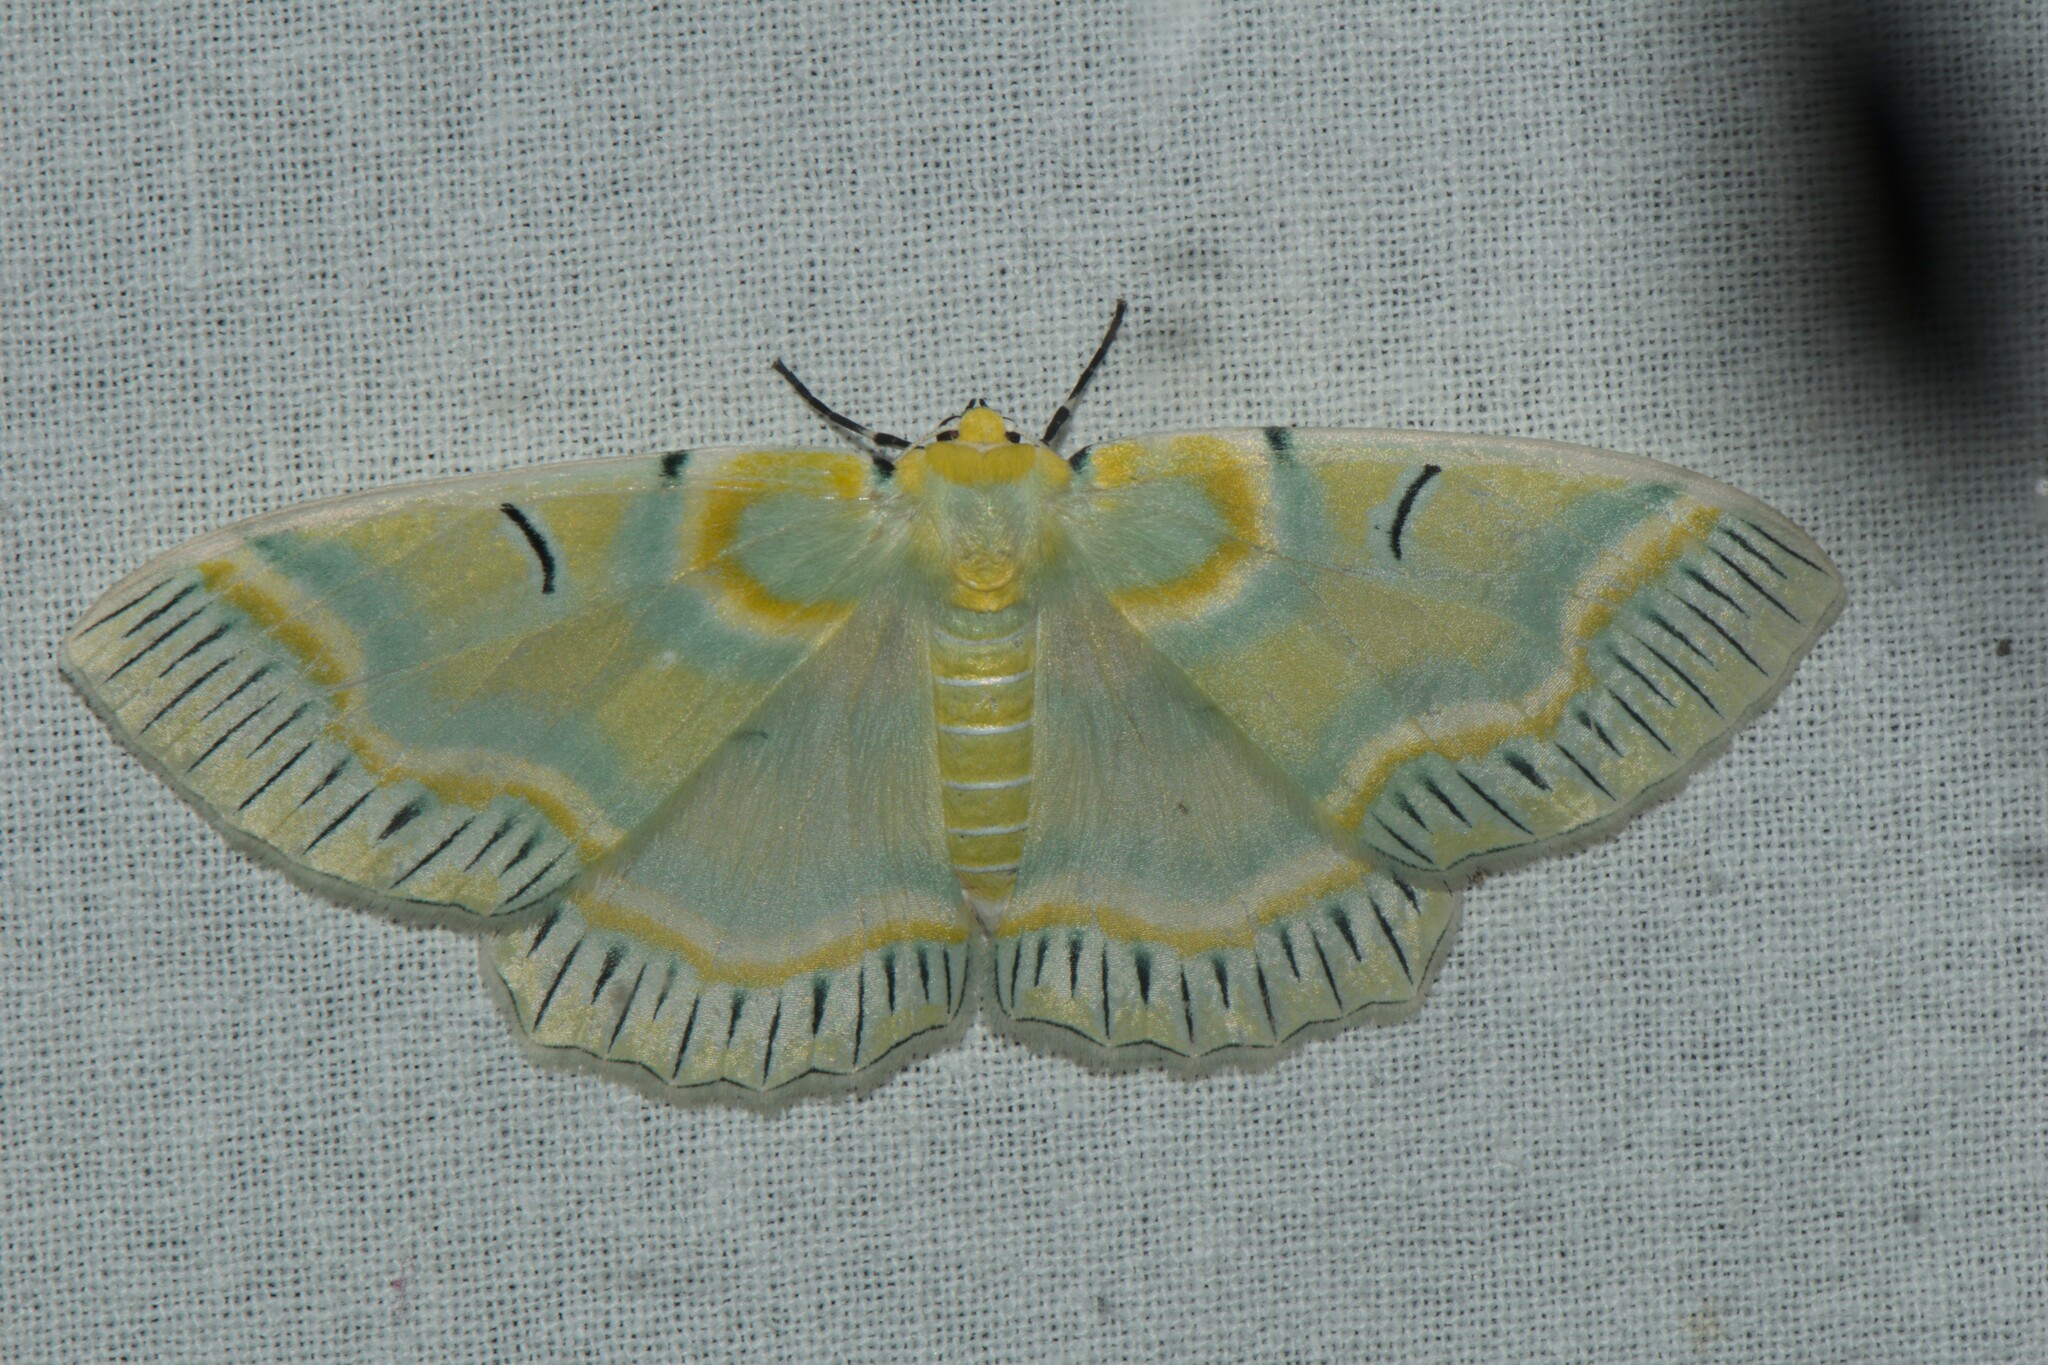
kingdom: Animalia
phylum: Arthropoda
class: Insecta
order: Lepidoptera
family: Geometridae
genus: Iotaphora
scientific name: Iotaphora iridicolor
